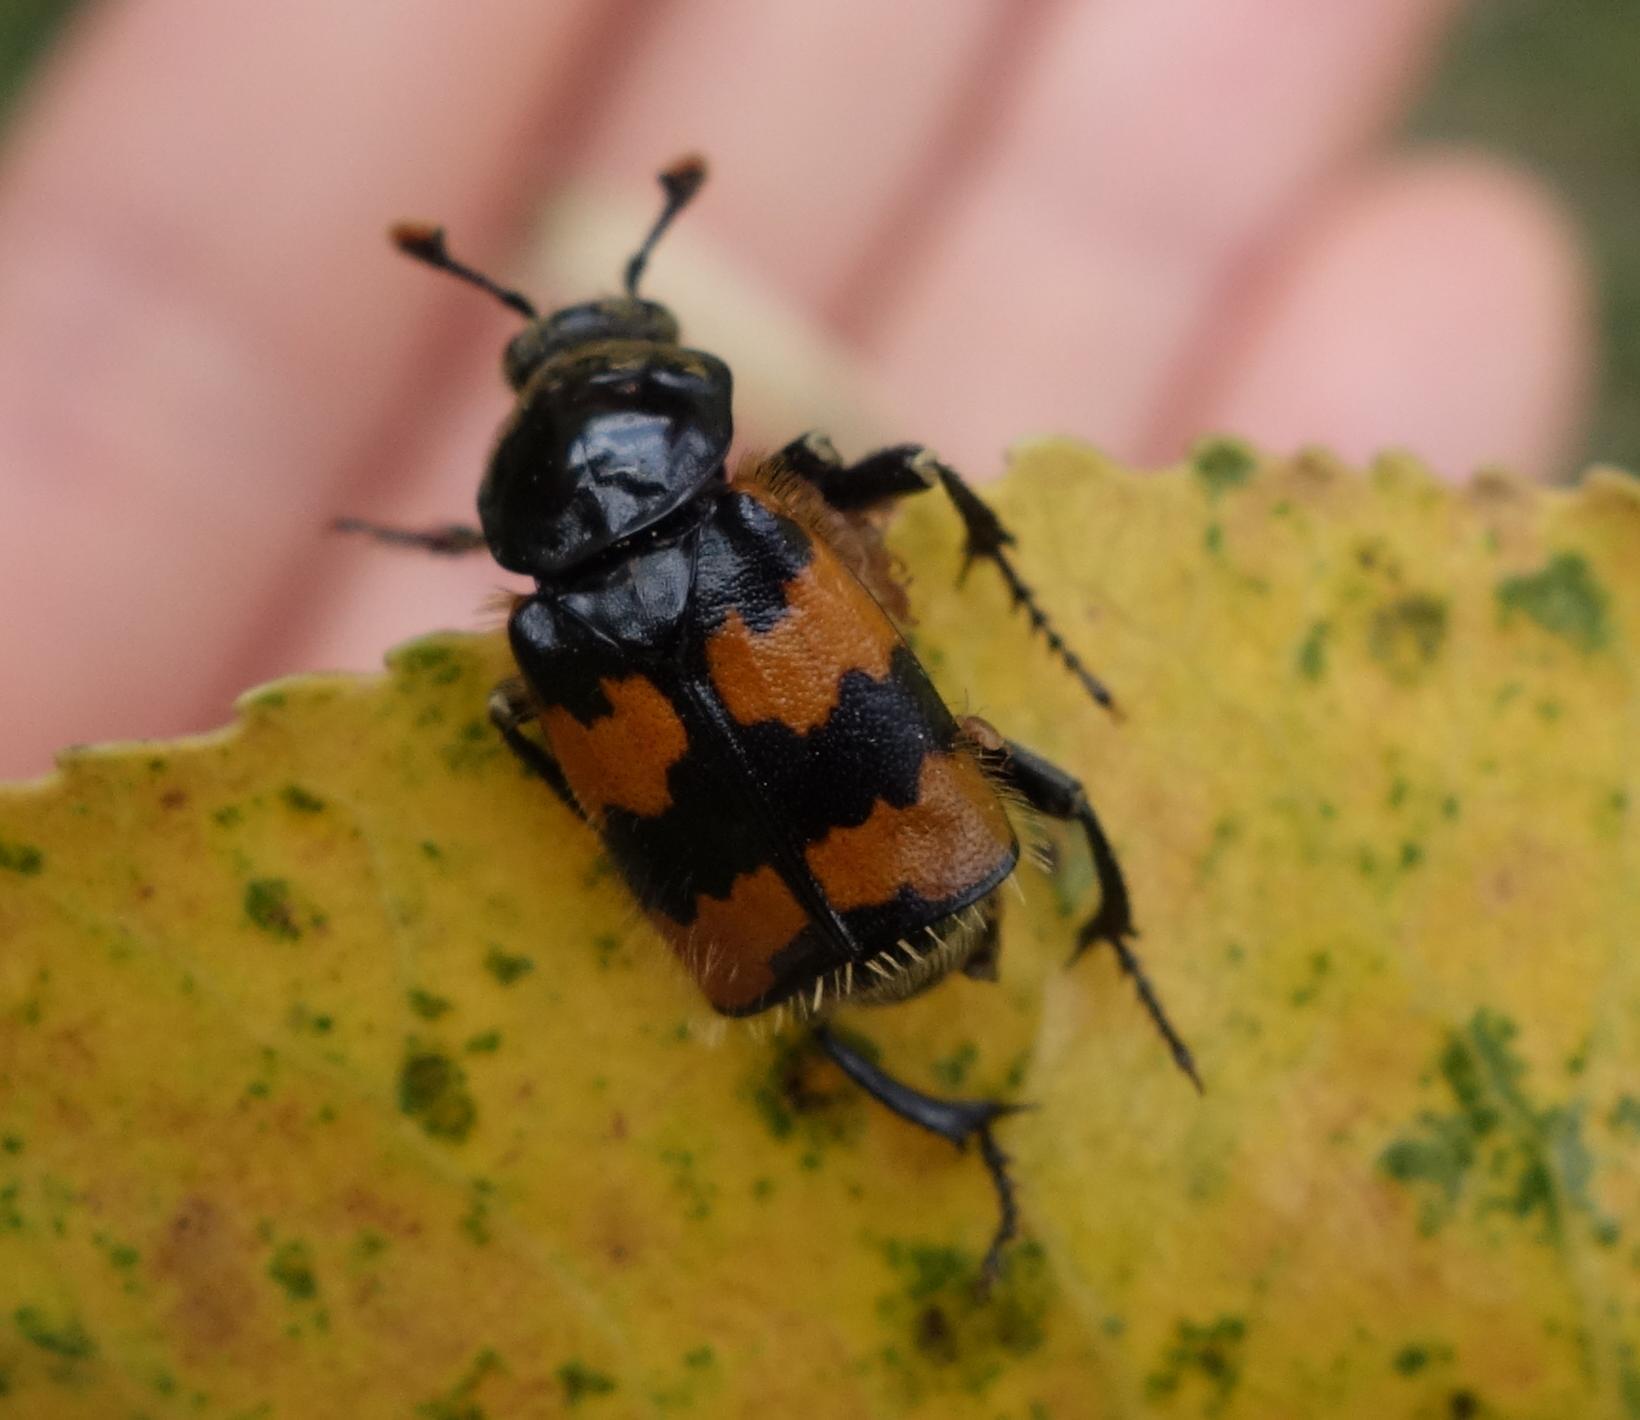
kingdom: Animalia
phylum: Arthropoda
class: Insecta
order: Coleoptera
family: Staphylinidae
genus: Nicrophorus
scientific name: Nicrophorus vespillo
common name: Common burying beetle
